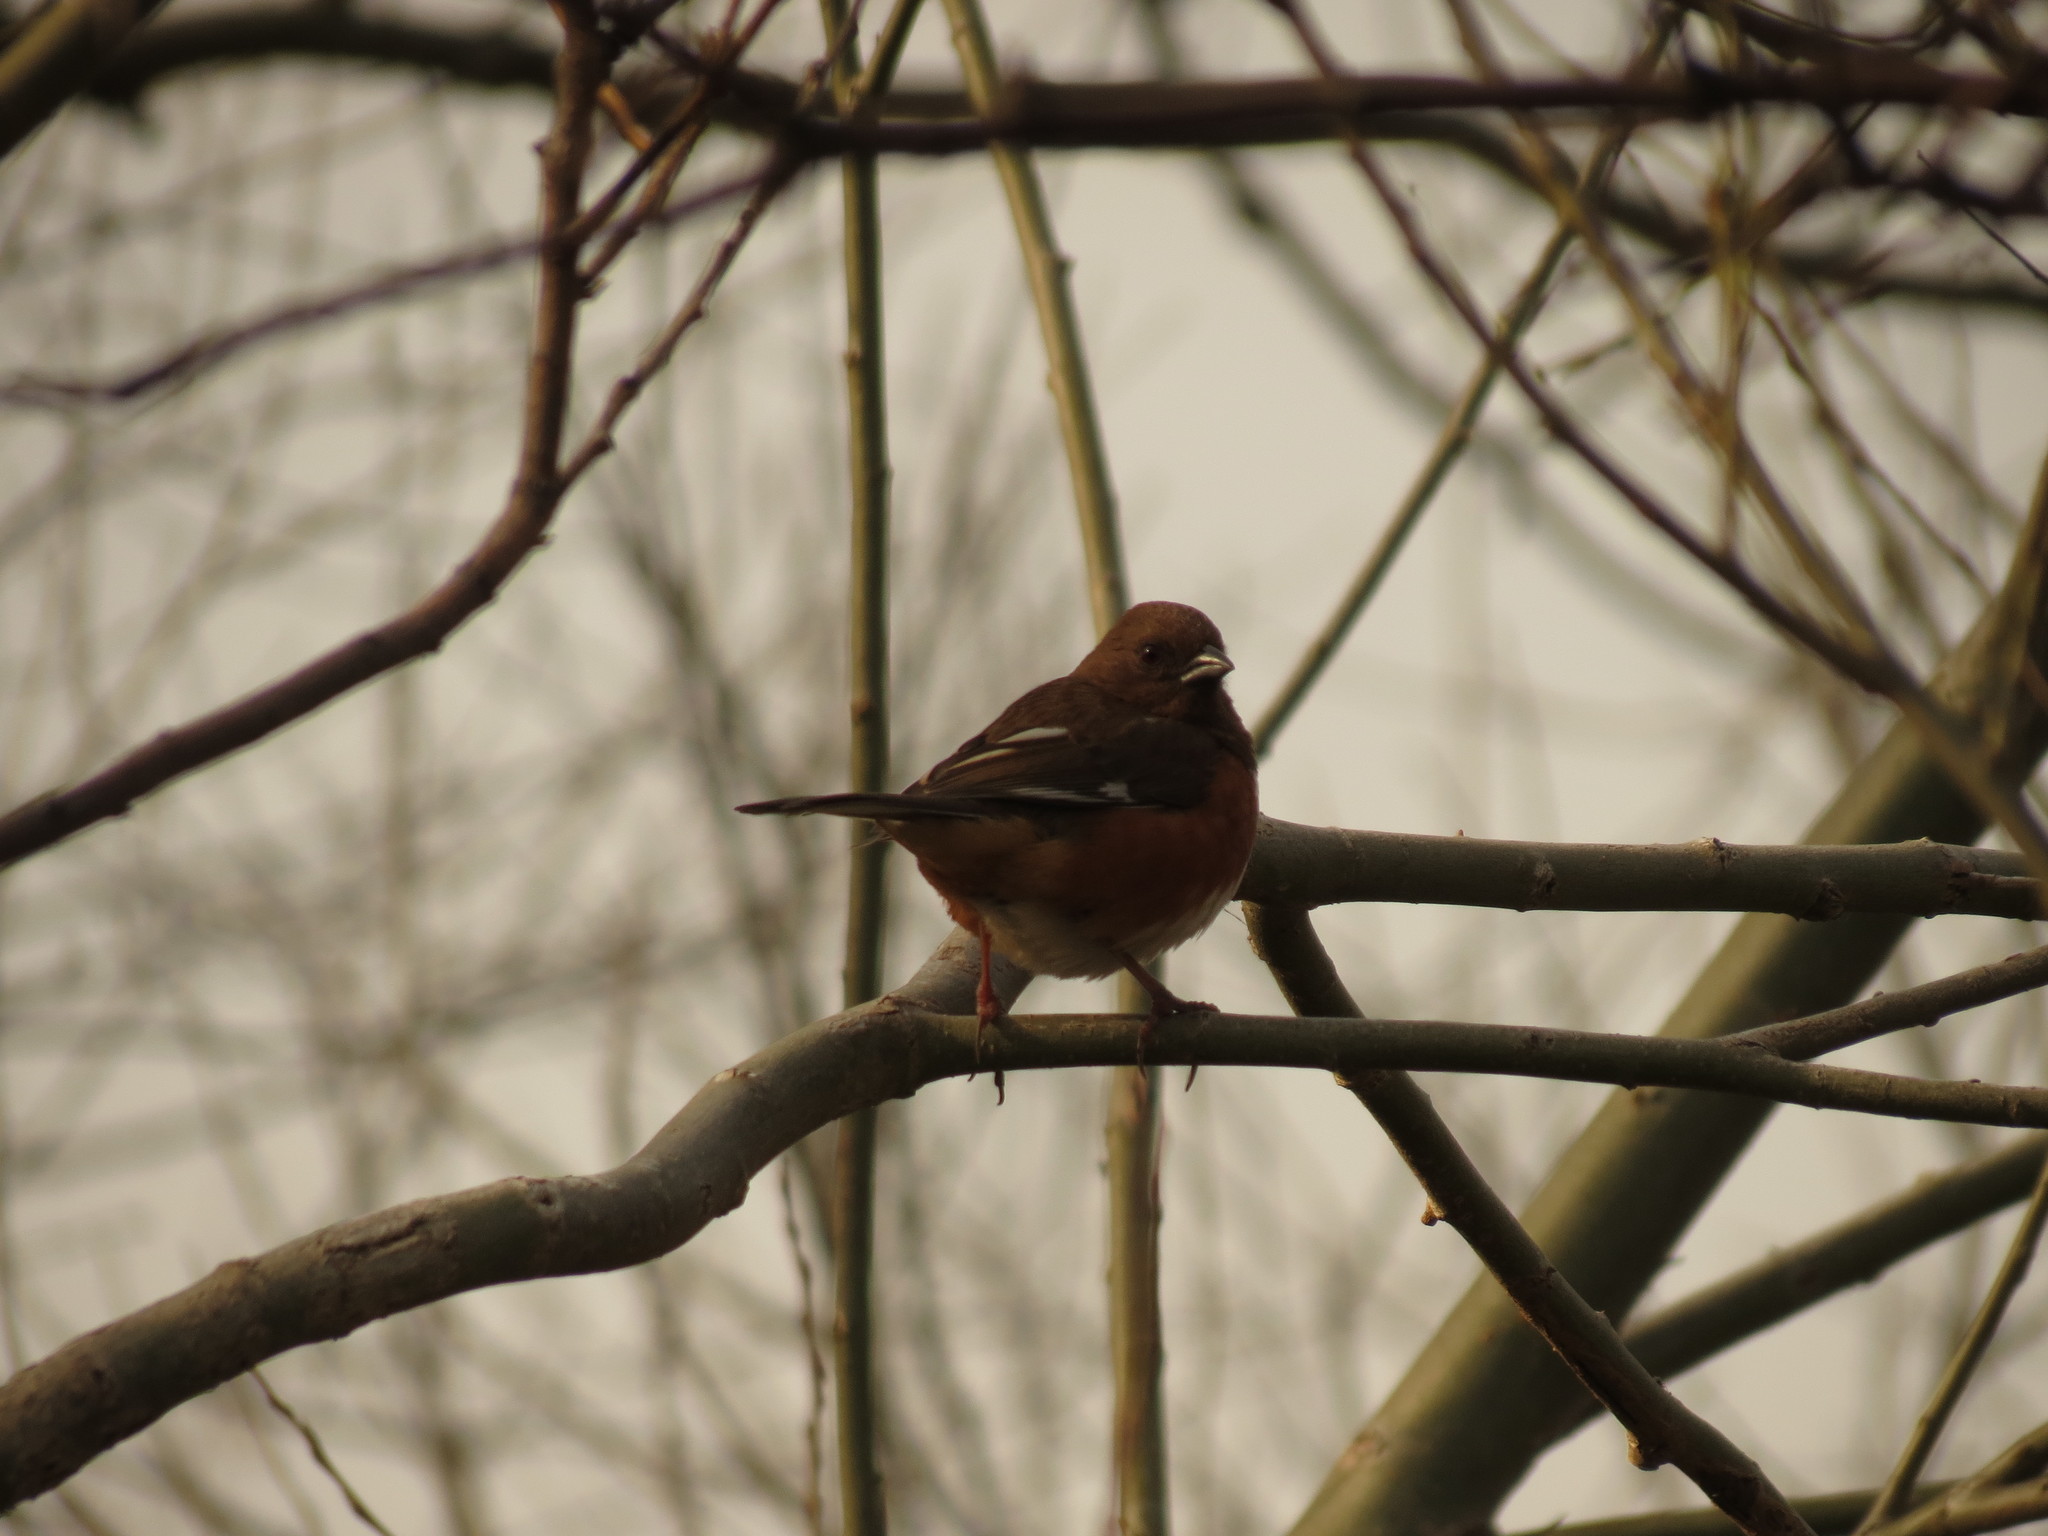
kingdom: Animalia
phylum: Chordata
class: Aves
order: Passeriformes
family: Passerellidae
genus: Pipilo
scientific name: Pipilo erythrophthalmus
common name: Eastern towhee
